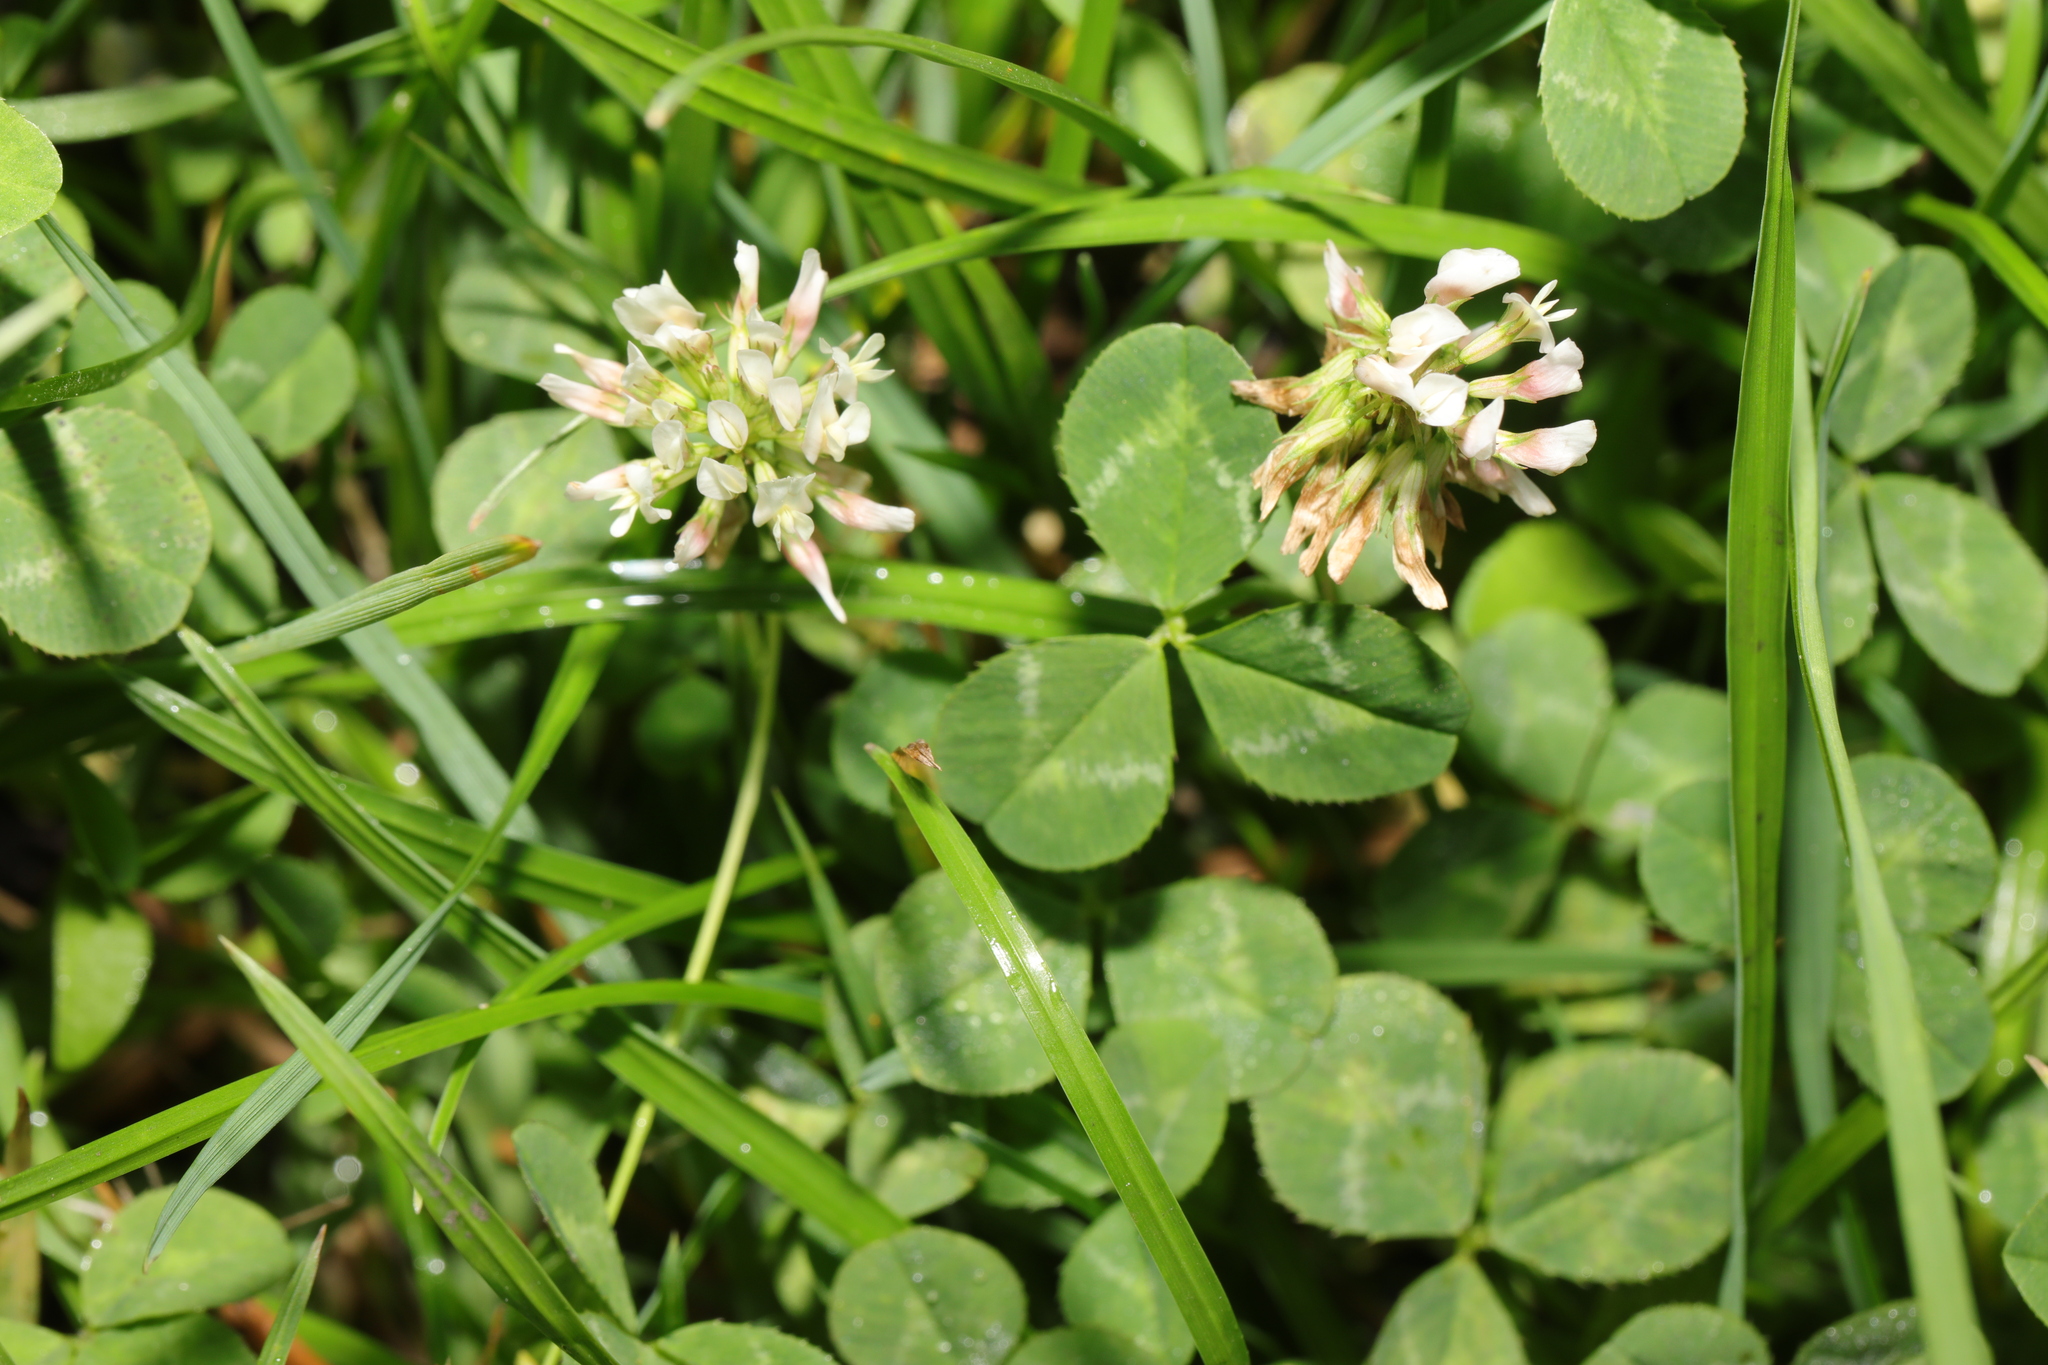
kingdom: Plantae
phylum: Tracheophyta
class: Magnoliopsida
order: Fabales
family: Fabaceae
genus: Trifolium
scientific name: Trifolium repens
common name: White clover
